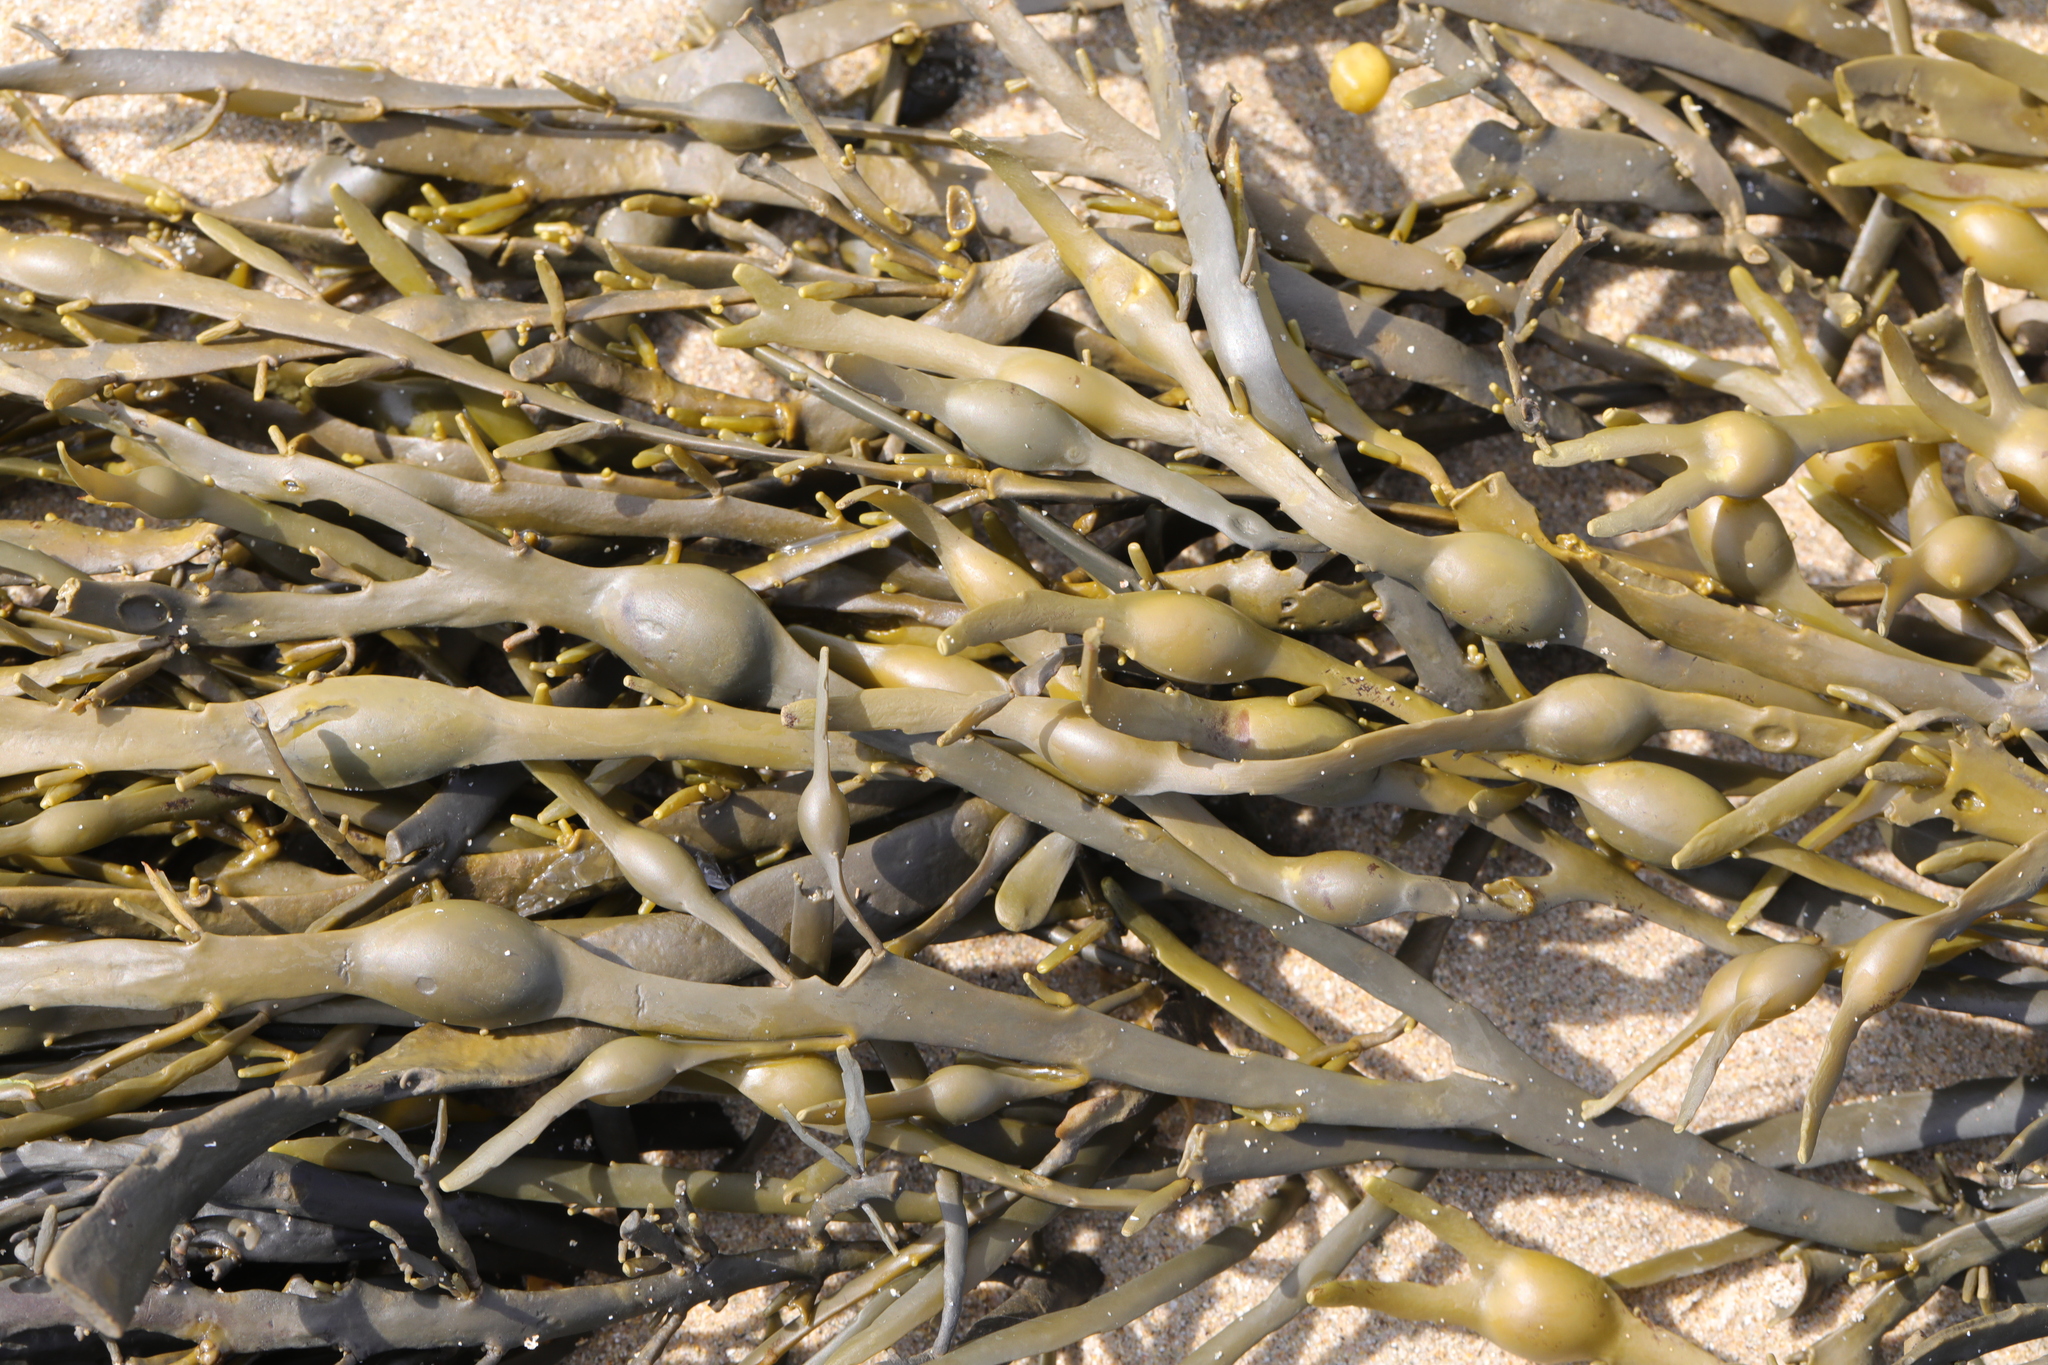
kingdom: Chromista
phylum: Ochrophyta
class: Phaeophyceae
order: Fucales
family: Fucaceae
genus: Ascophyllum
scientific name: Ascophyllum nodosum
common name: Knotted wrack
